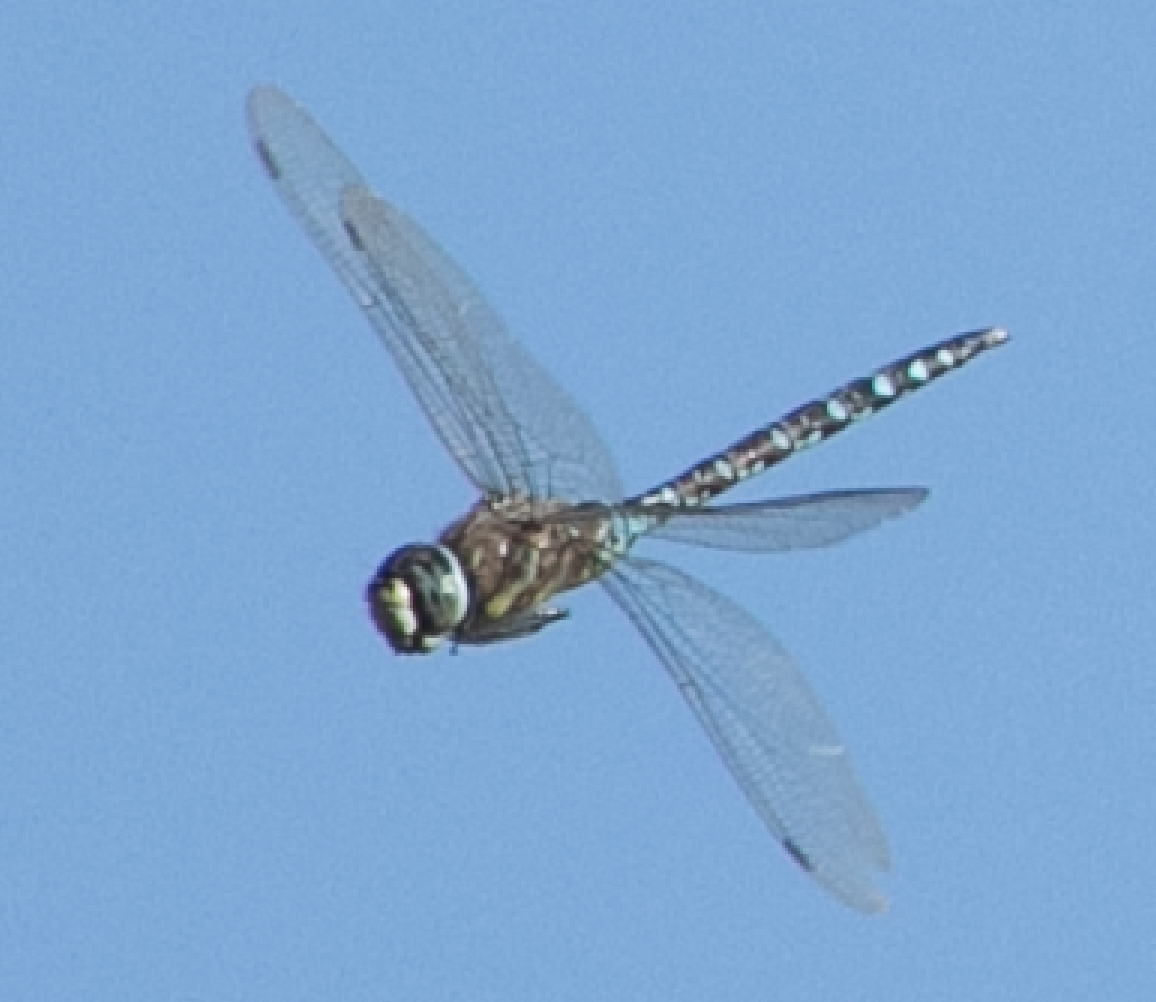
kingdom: Animalia
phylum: Arthropoda
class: Insecta
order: Odonata
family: Aeshnidae
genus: Aeshna
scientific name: Aeshna mixta
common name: Migrant hawker
